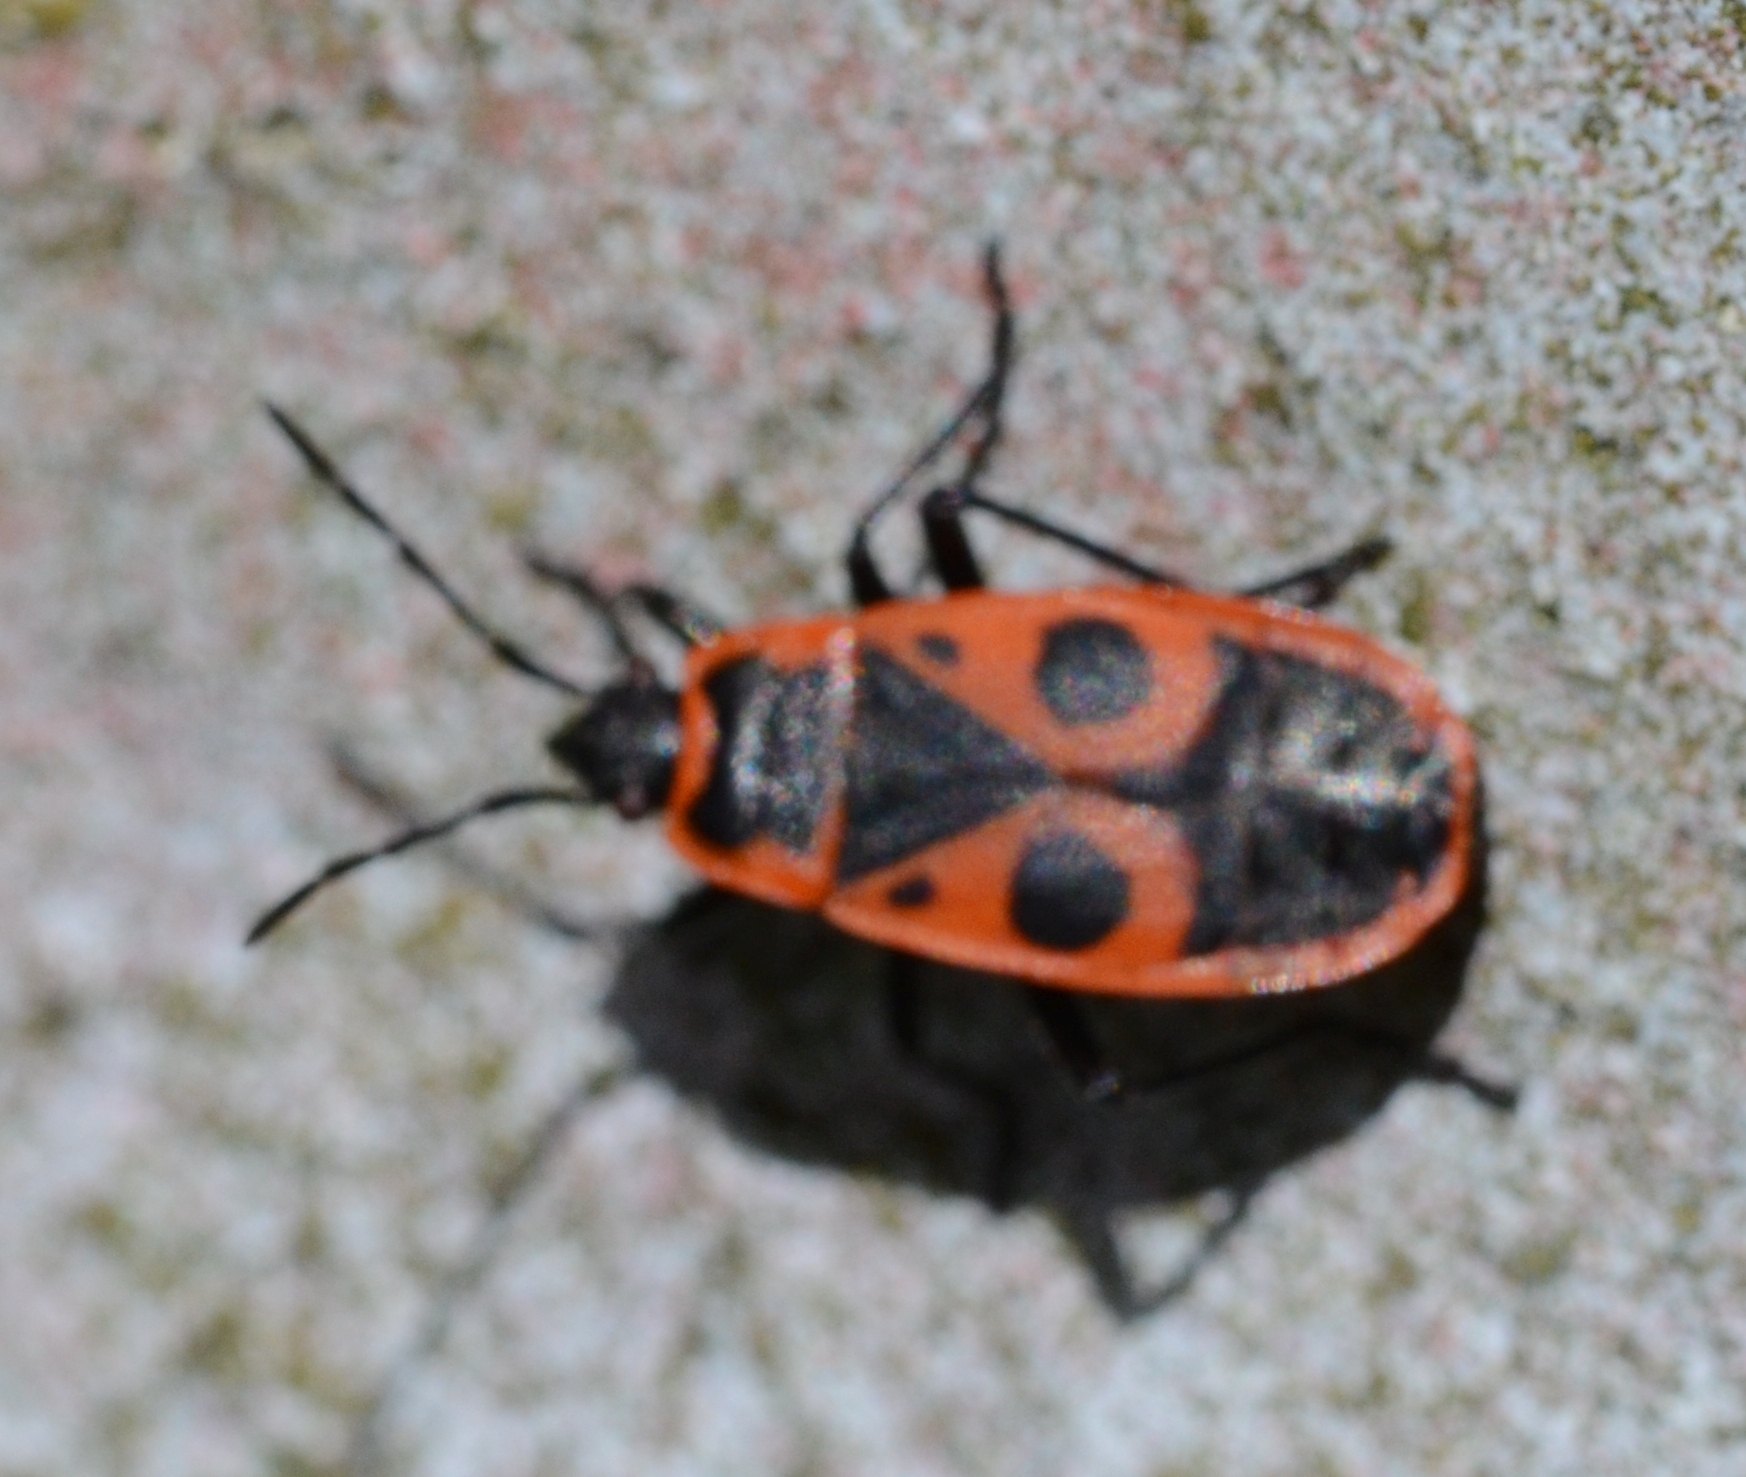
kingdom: Animalia
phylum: Arthropoda
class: Insecta
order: Hemiptera
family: Pyrrhocoridae
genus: Pyrrhocoris
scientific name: Pyrrhocoris apterus
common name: Firebug
